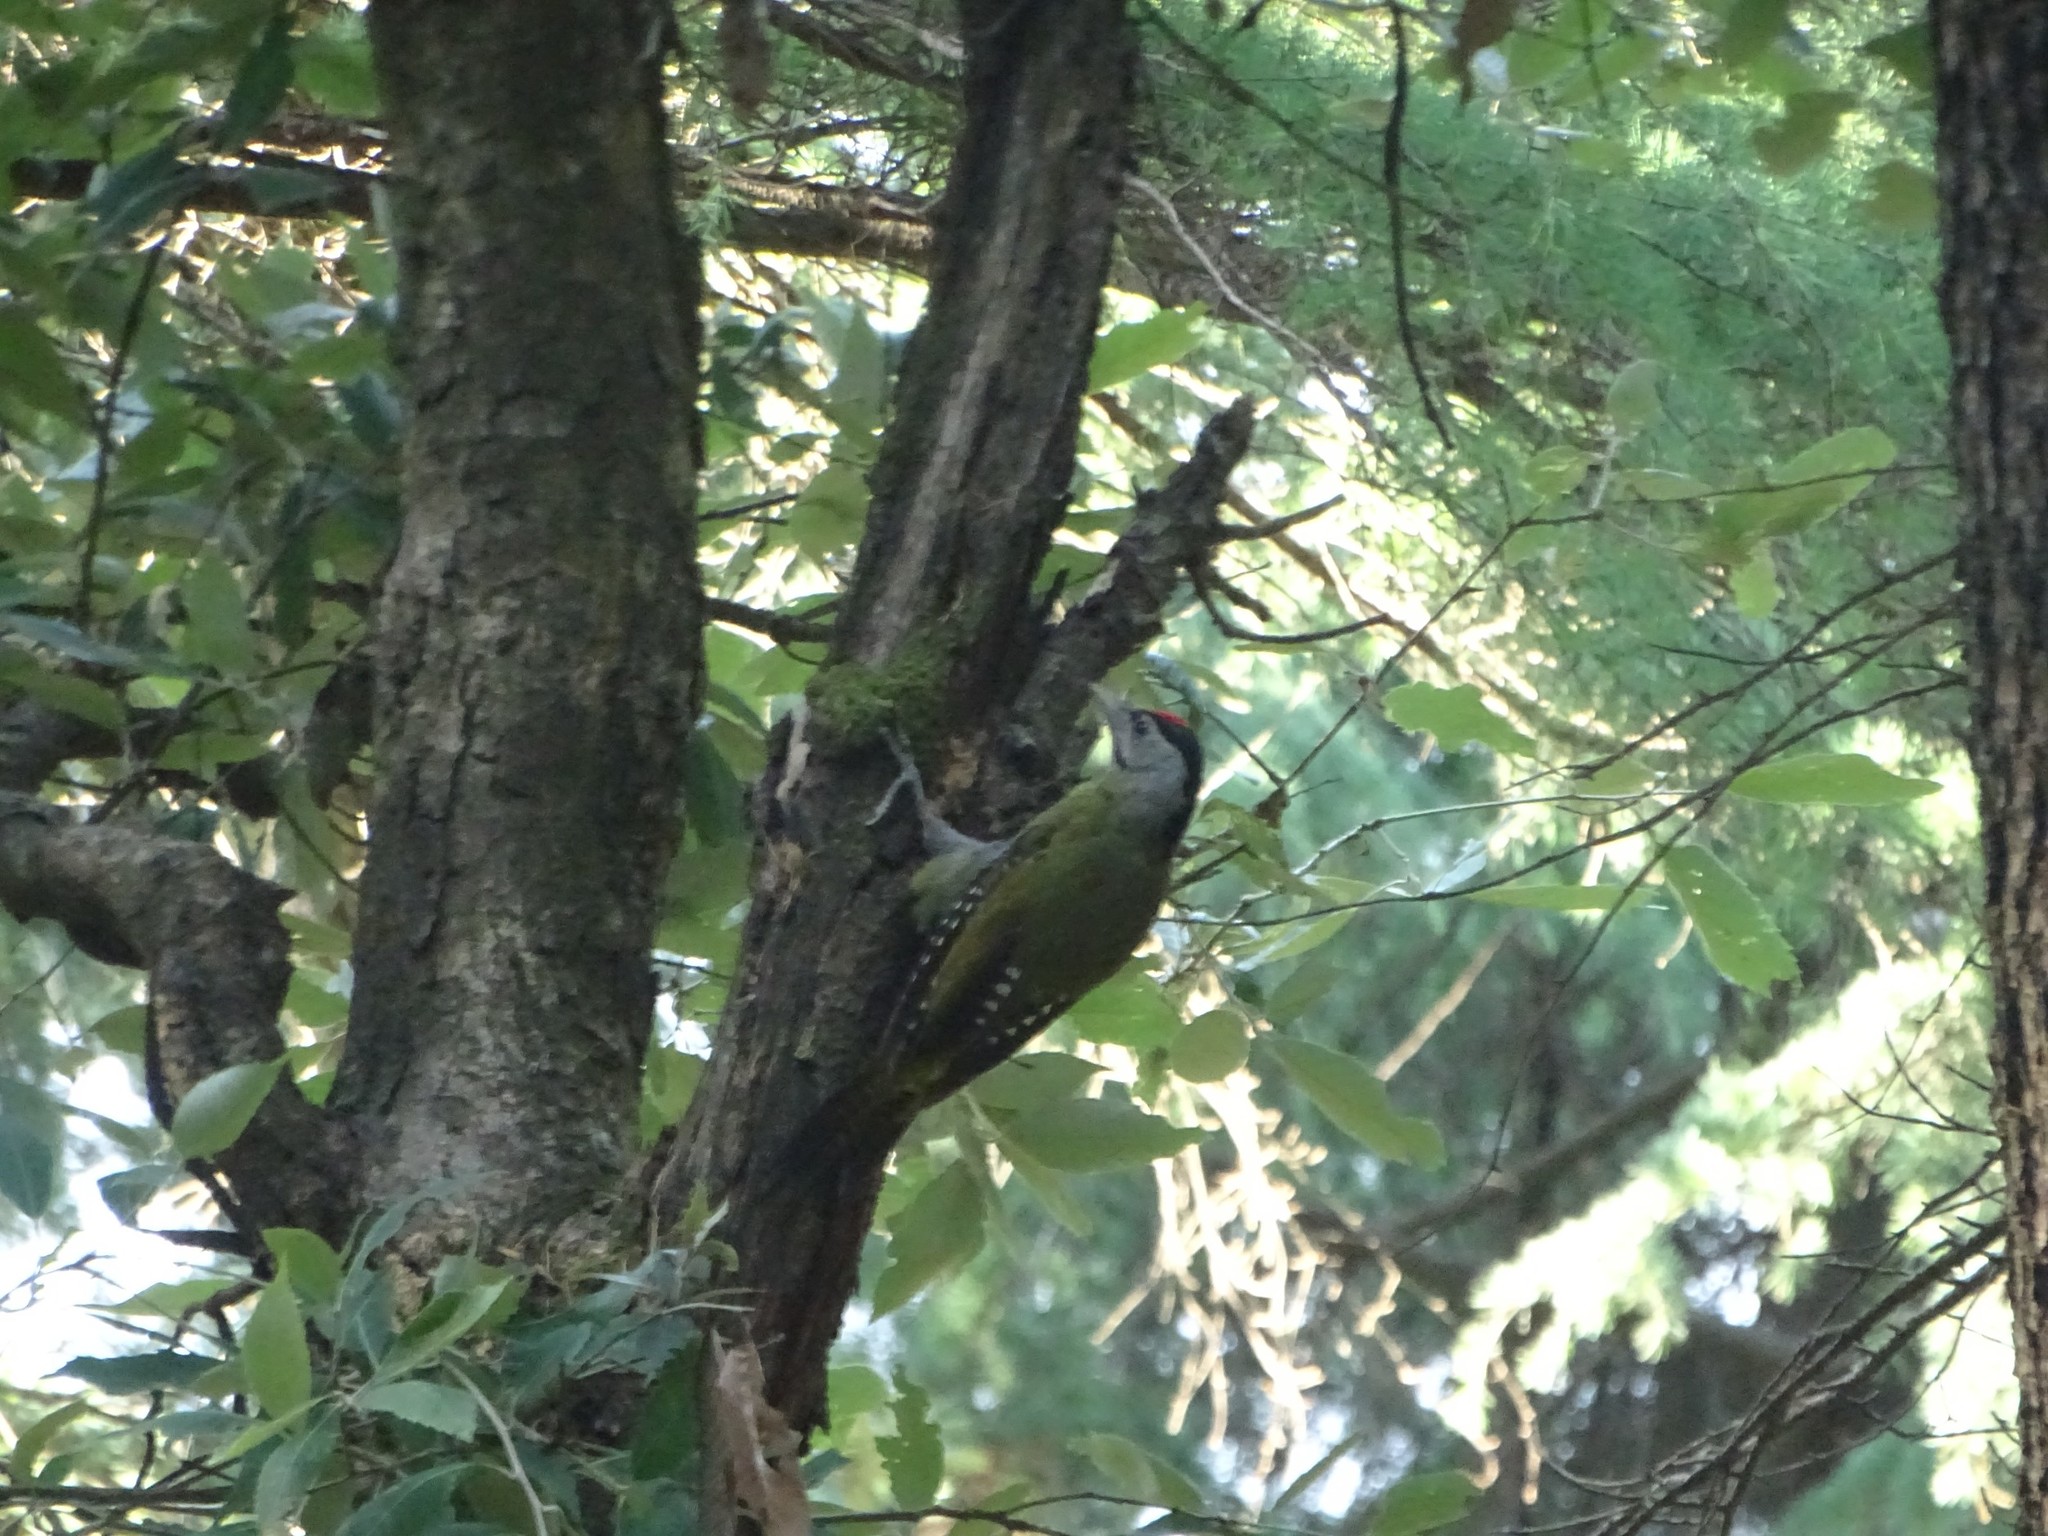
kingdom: Animalia
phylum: Chordata
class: Aves
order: Piciformes
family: Picidae
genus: Picus
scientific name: Picus canus
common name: Grey-headed woodpecker
